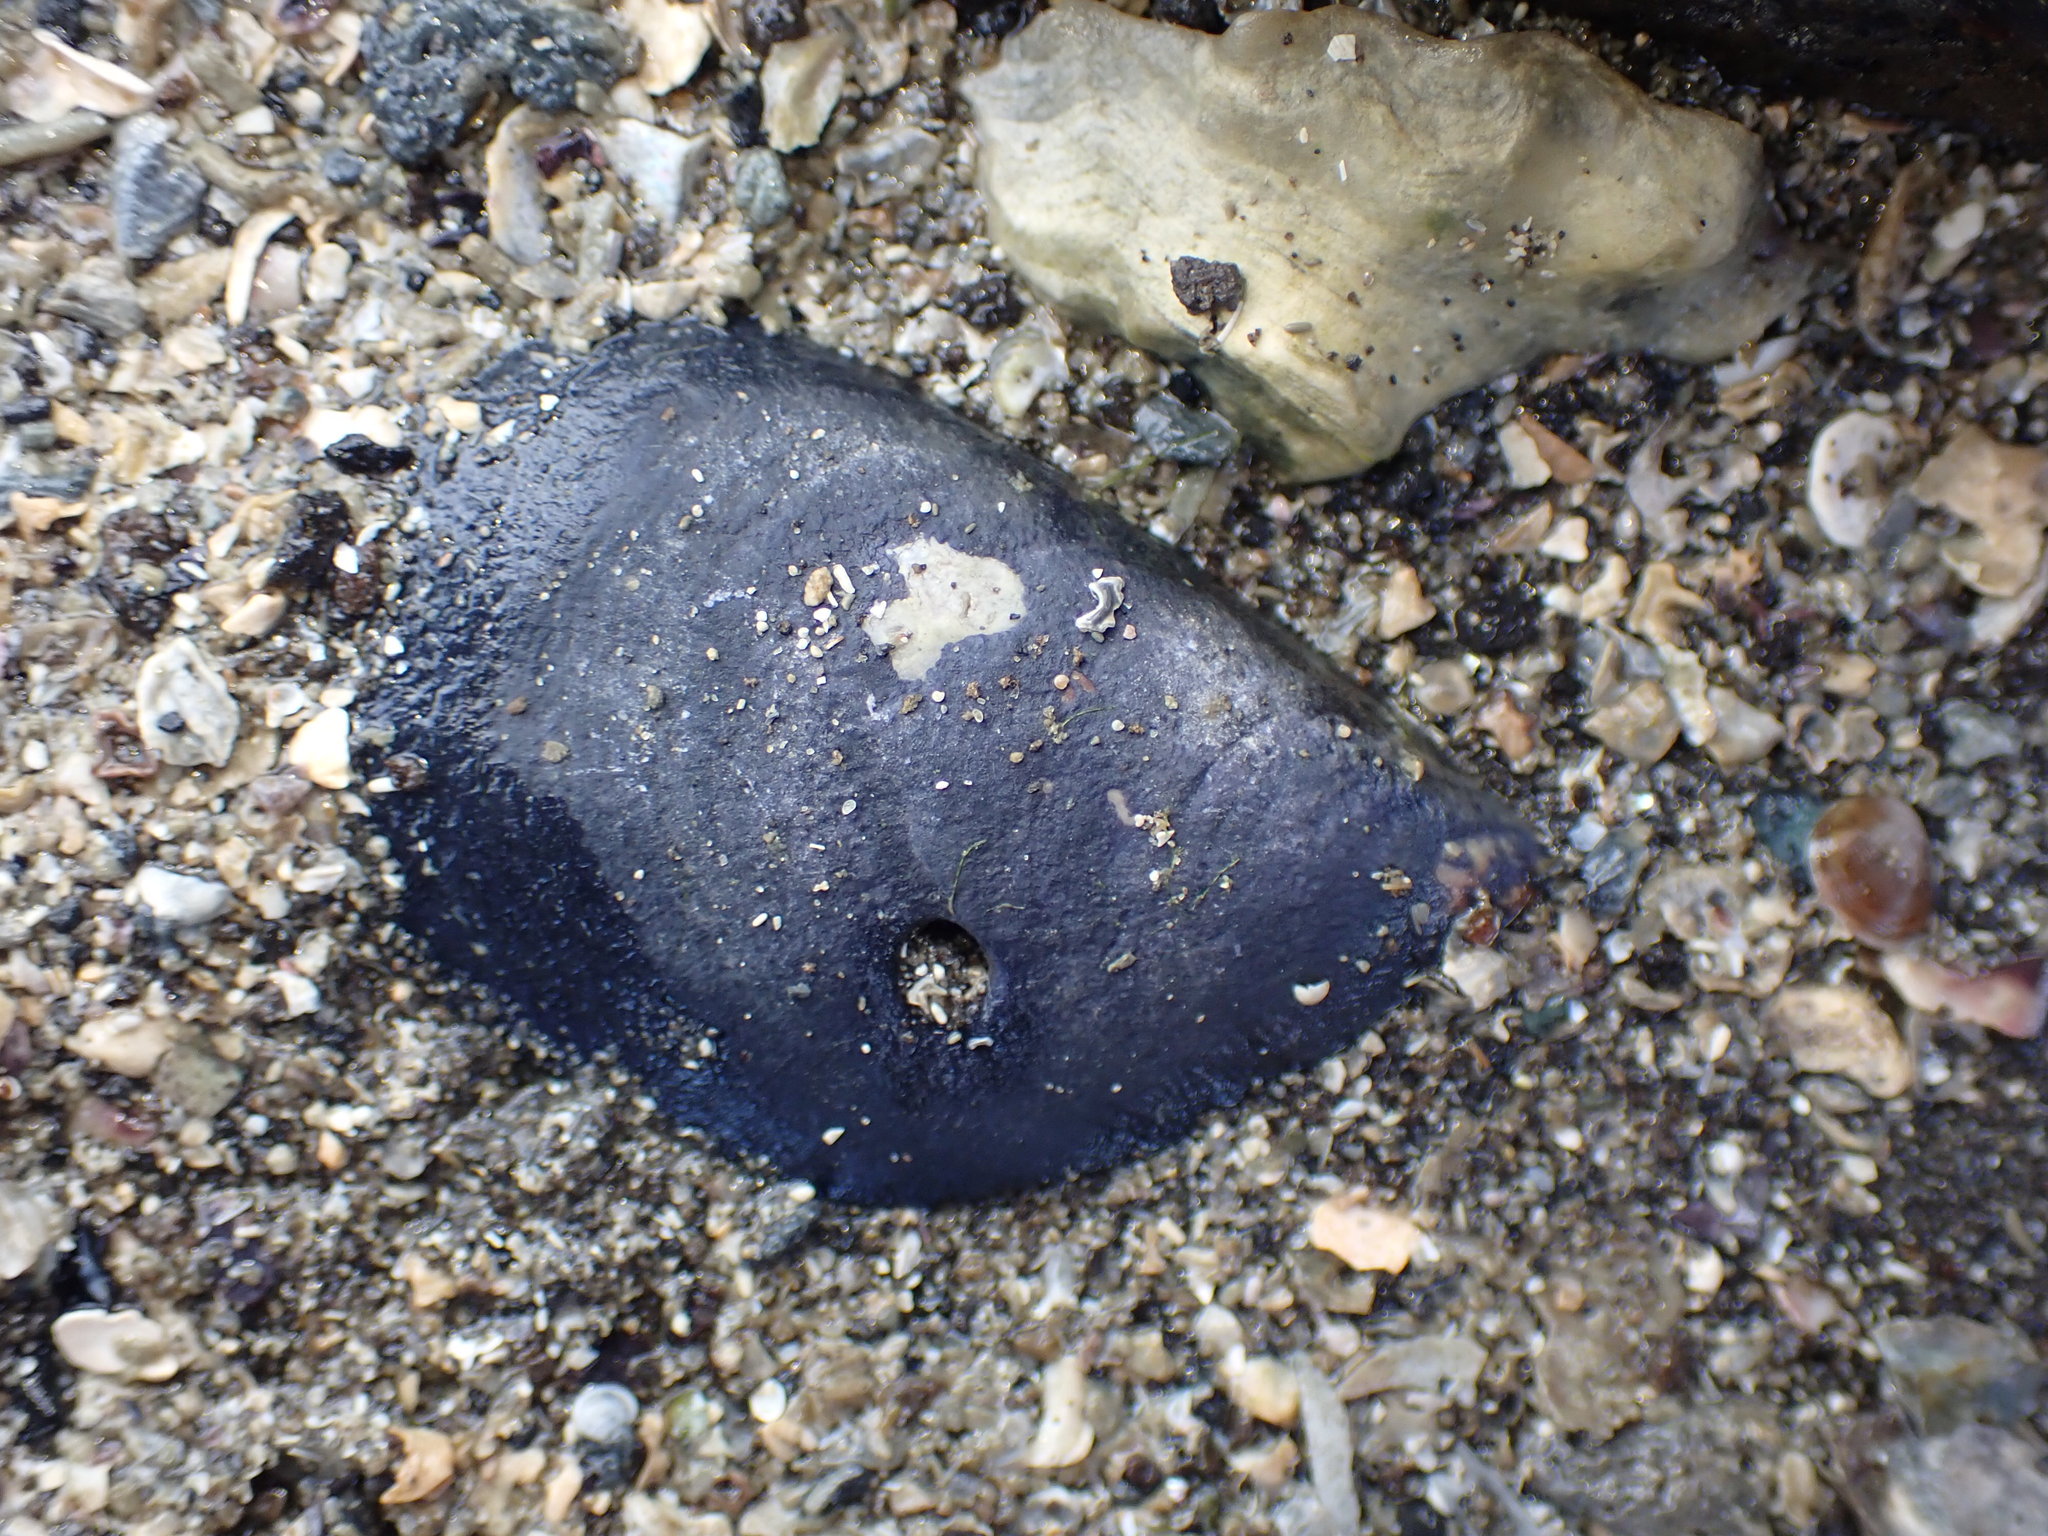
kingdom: Animalia
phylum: Mollusca
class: Bivalvia
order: Mytilida
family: Mytilidae
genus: Mytilus
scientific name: Mytilus planulatus
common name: Australian mussel
